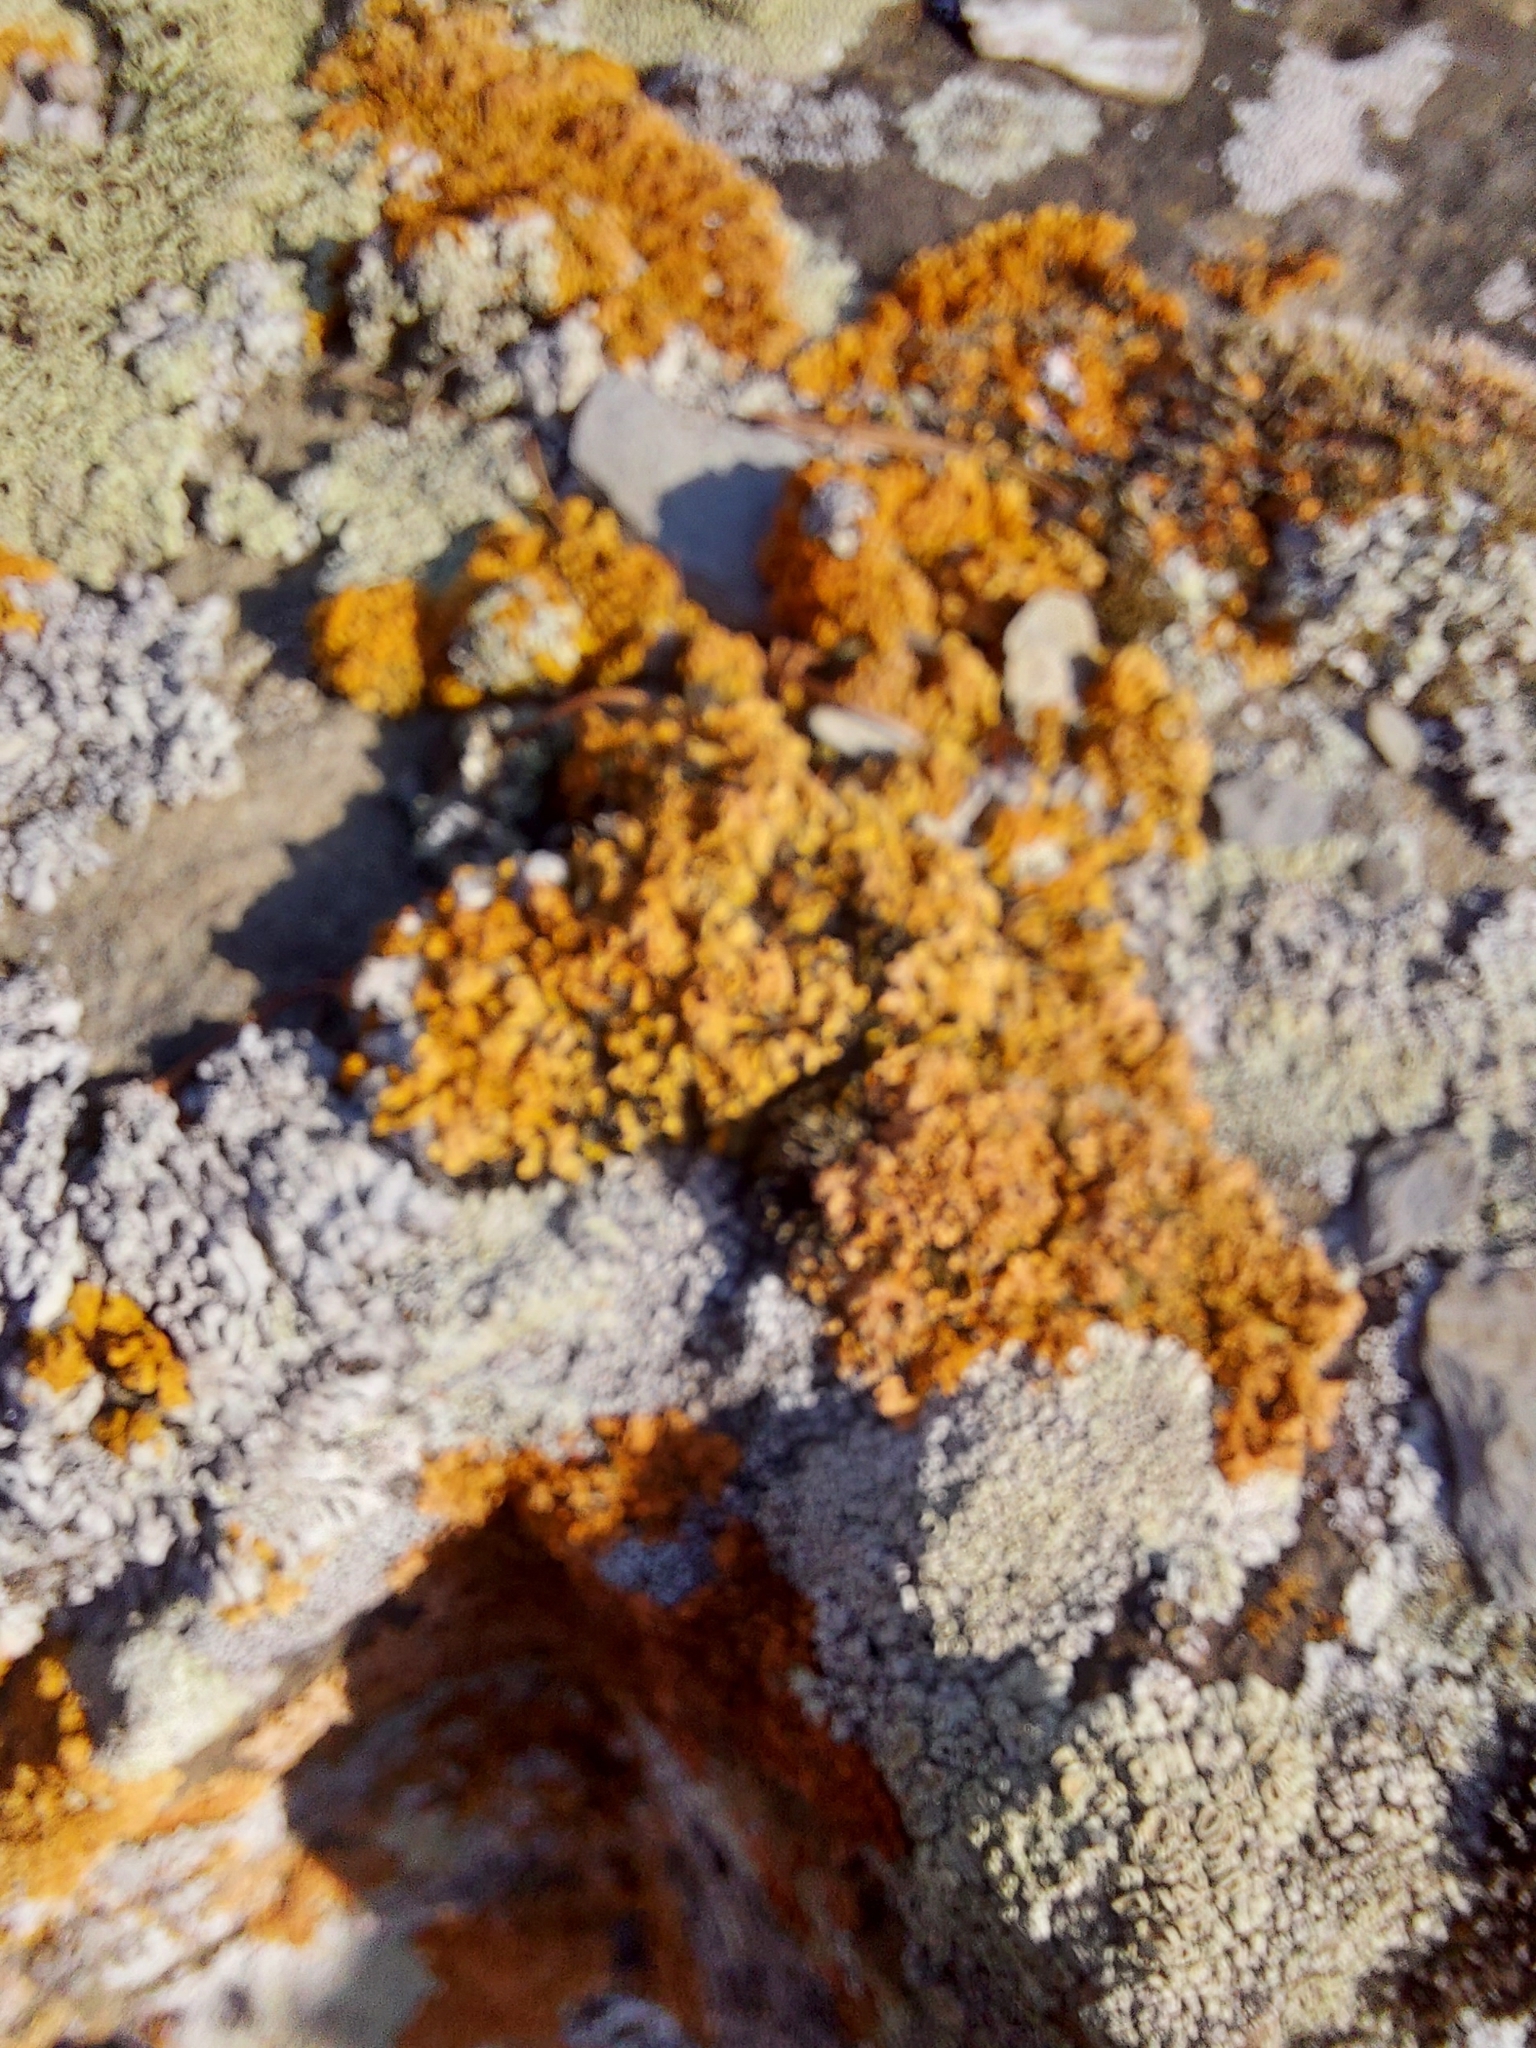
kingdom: Fungi
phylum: Ascomycota
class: Lecanoromycetes
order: Teloschistales
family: Teloschistaceae
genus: Xanthoria
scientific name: Xanthoria parietina
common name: Common orange lichen
